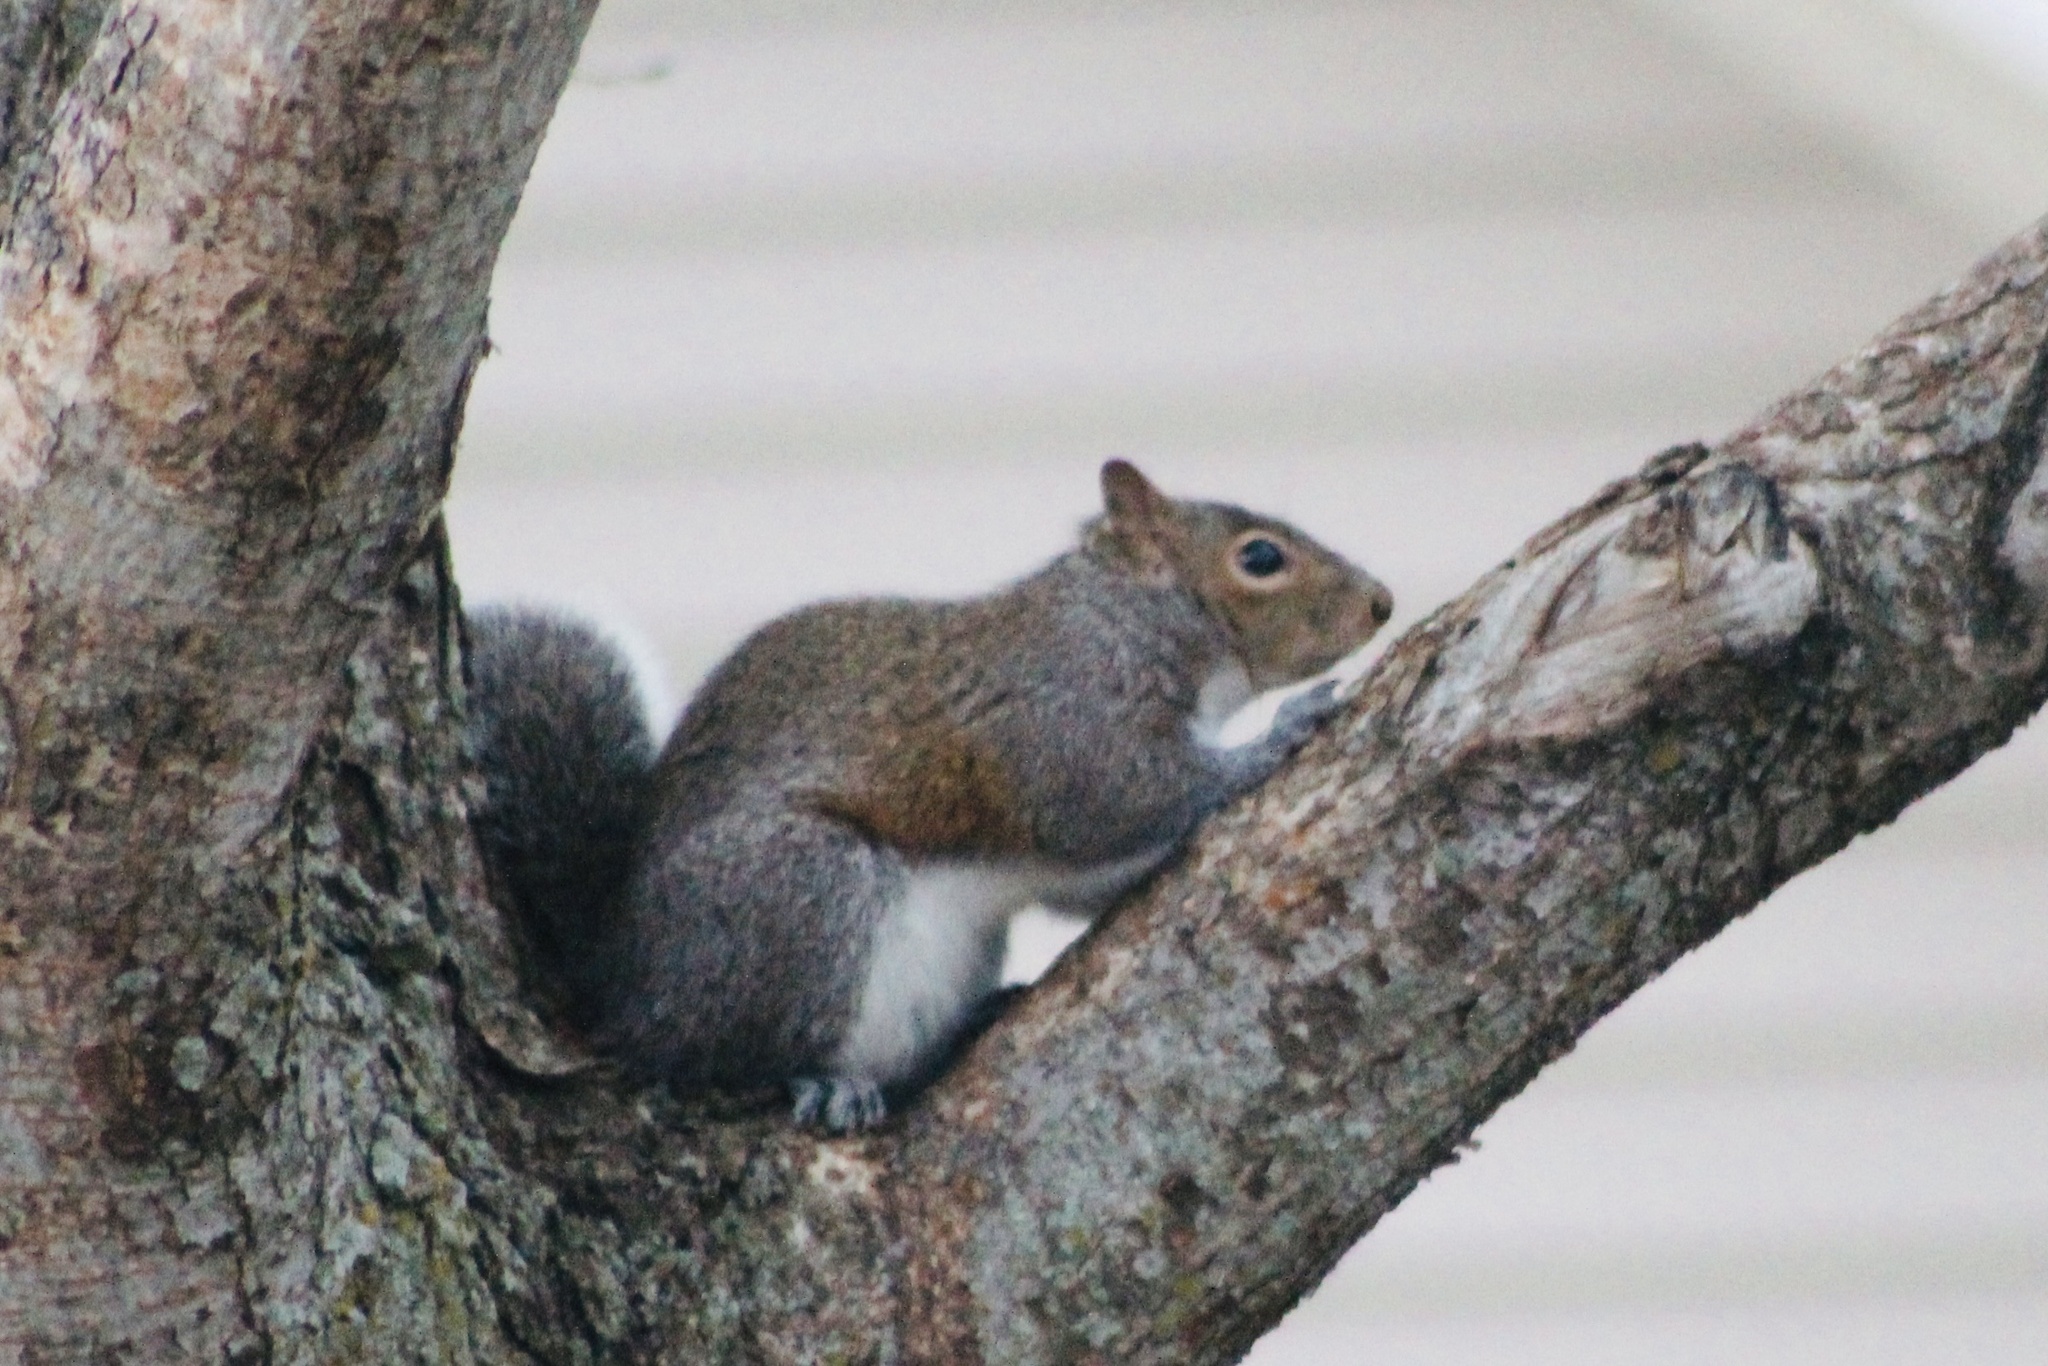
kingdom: Animalia
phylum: Chordata
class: Mammalia
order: Rodentia
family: Sciuridae
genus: Sciurus
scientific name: Sciurus carolinensis
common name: Eastern gray squirrel
